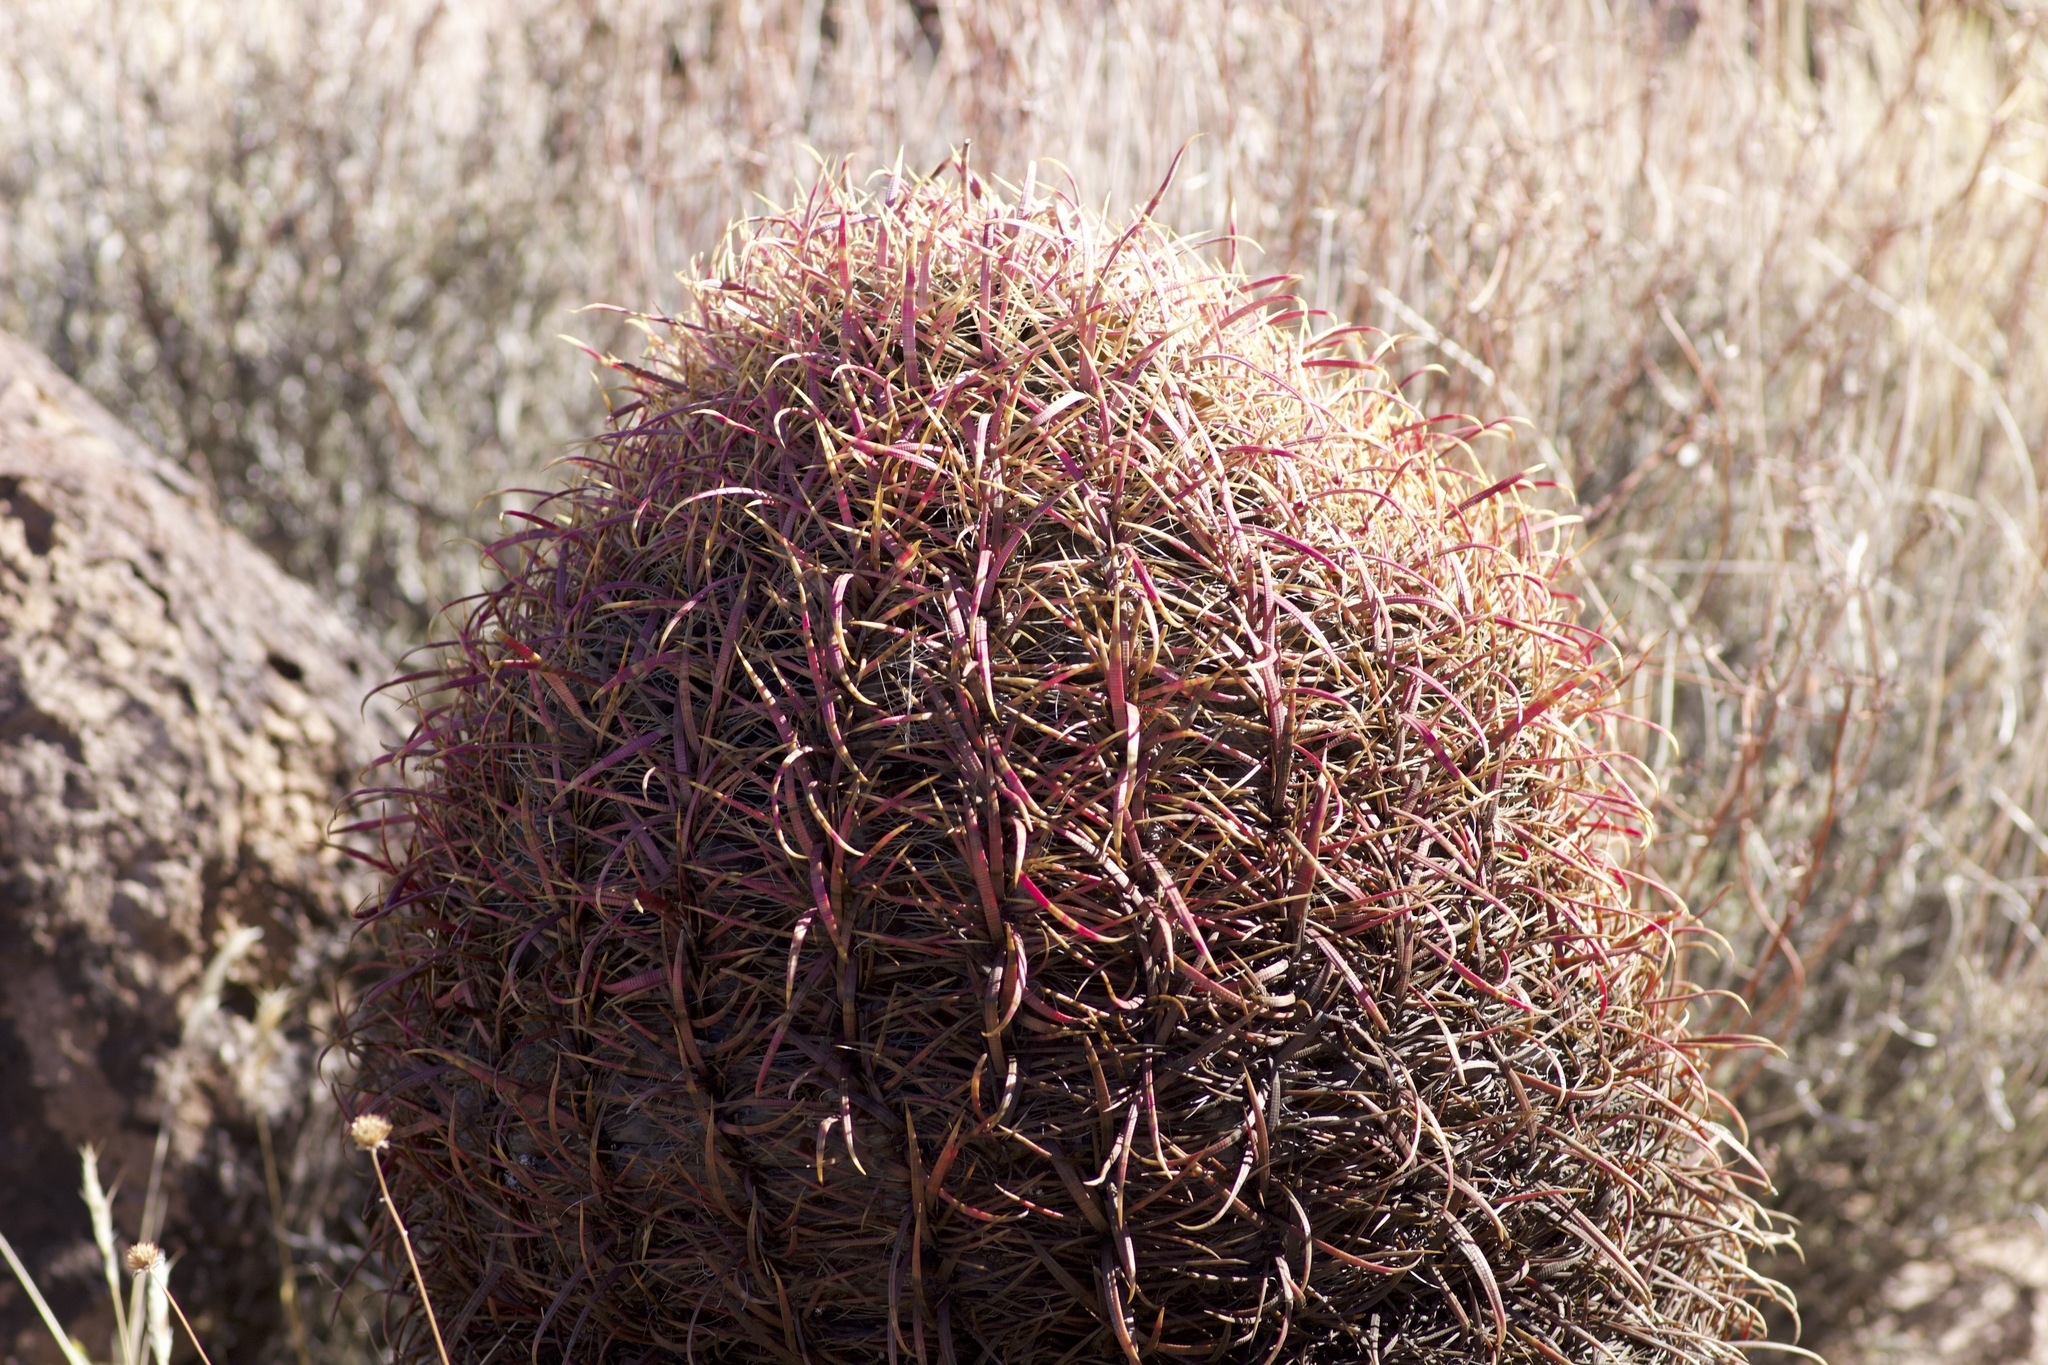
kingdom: Plantae
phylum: Tracheophyta
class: Magnoliopsida
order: Caryophyllales
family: Cactaceae
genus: Ferocactus
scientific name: Ferocactus cylindraceus
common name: California barrel cactus
